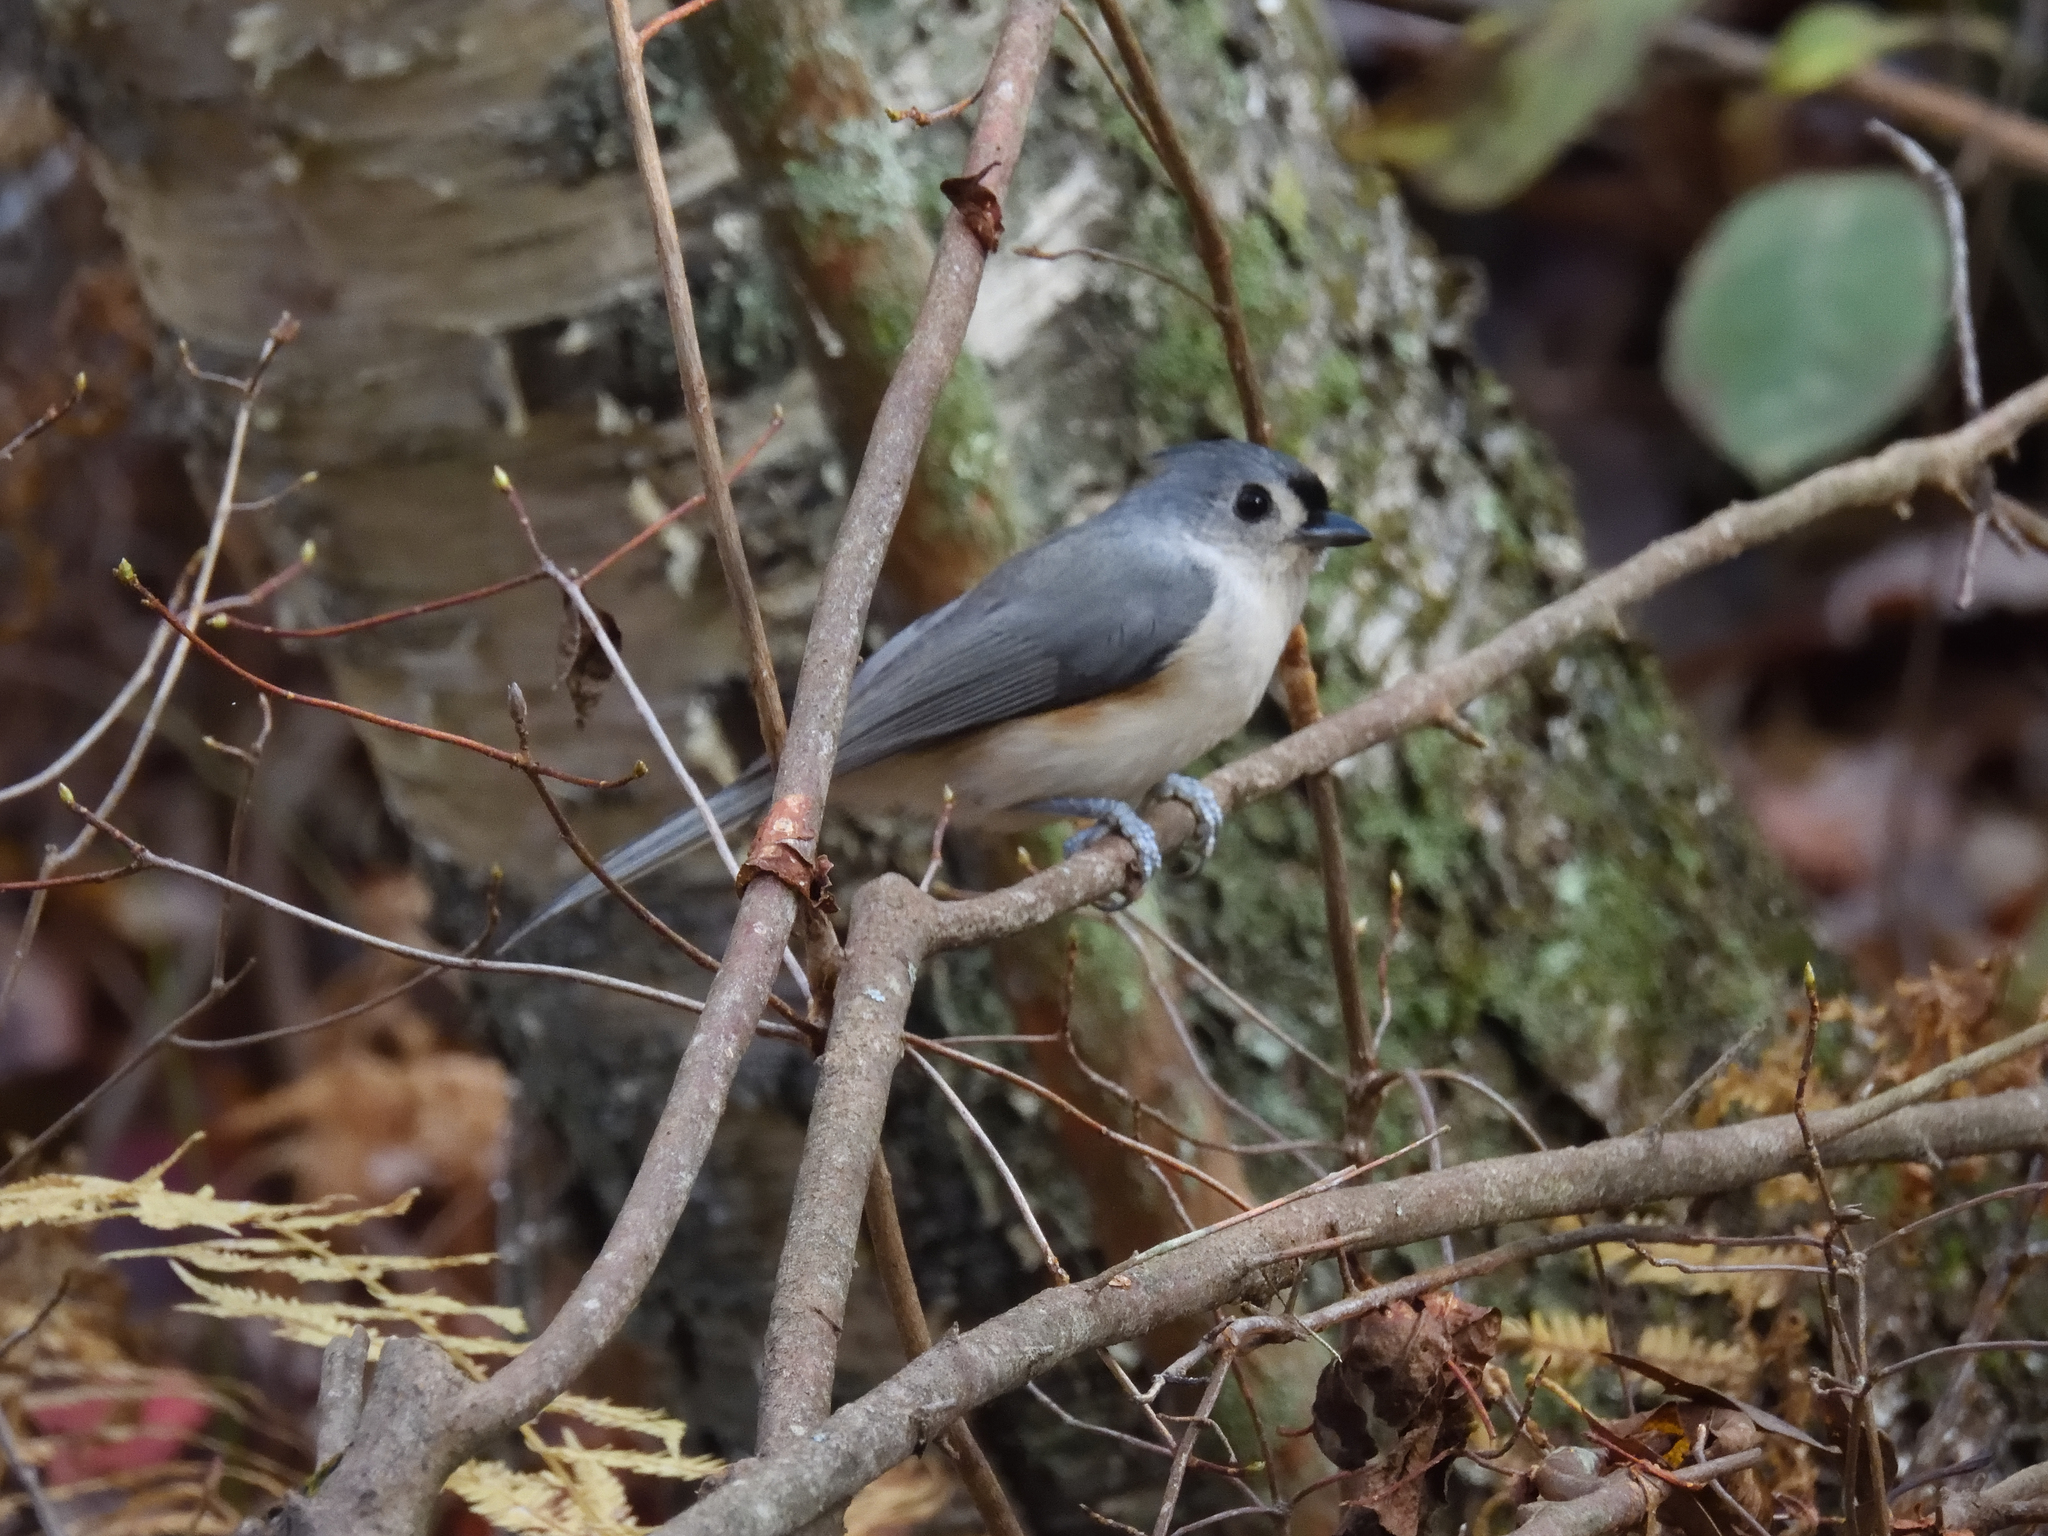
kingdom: Animalia
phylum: Chordata
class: Aves
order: Passeriformes
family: Paridae
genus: Baeolophus
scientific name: Baeolophus bicolor
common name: Tufted titmouse
